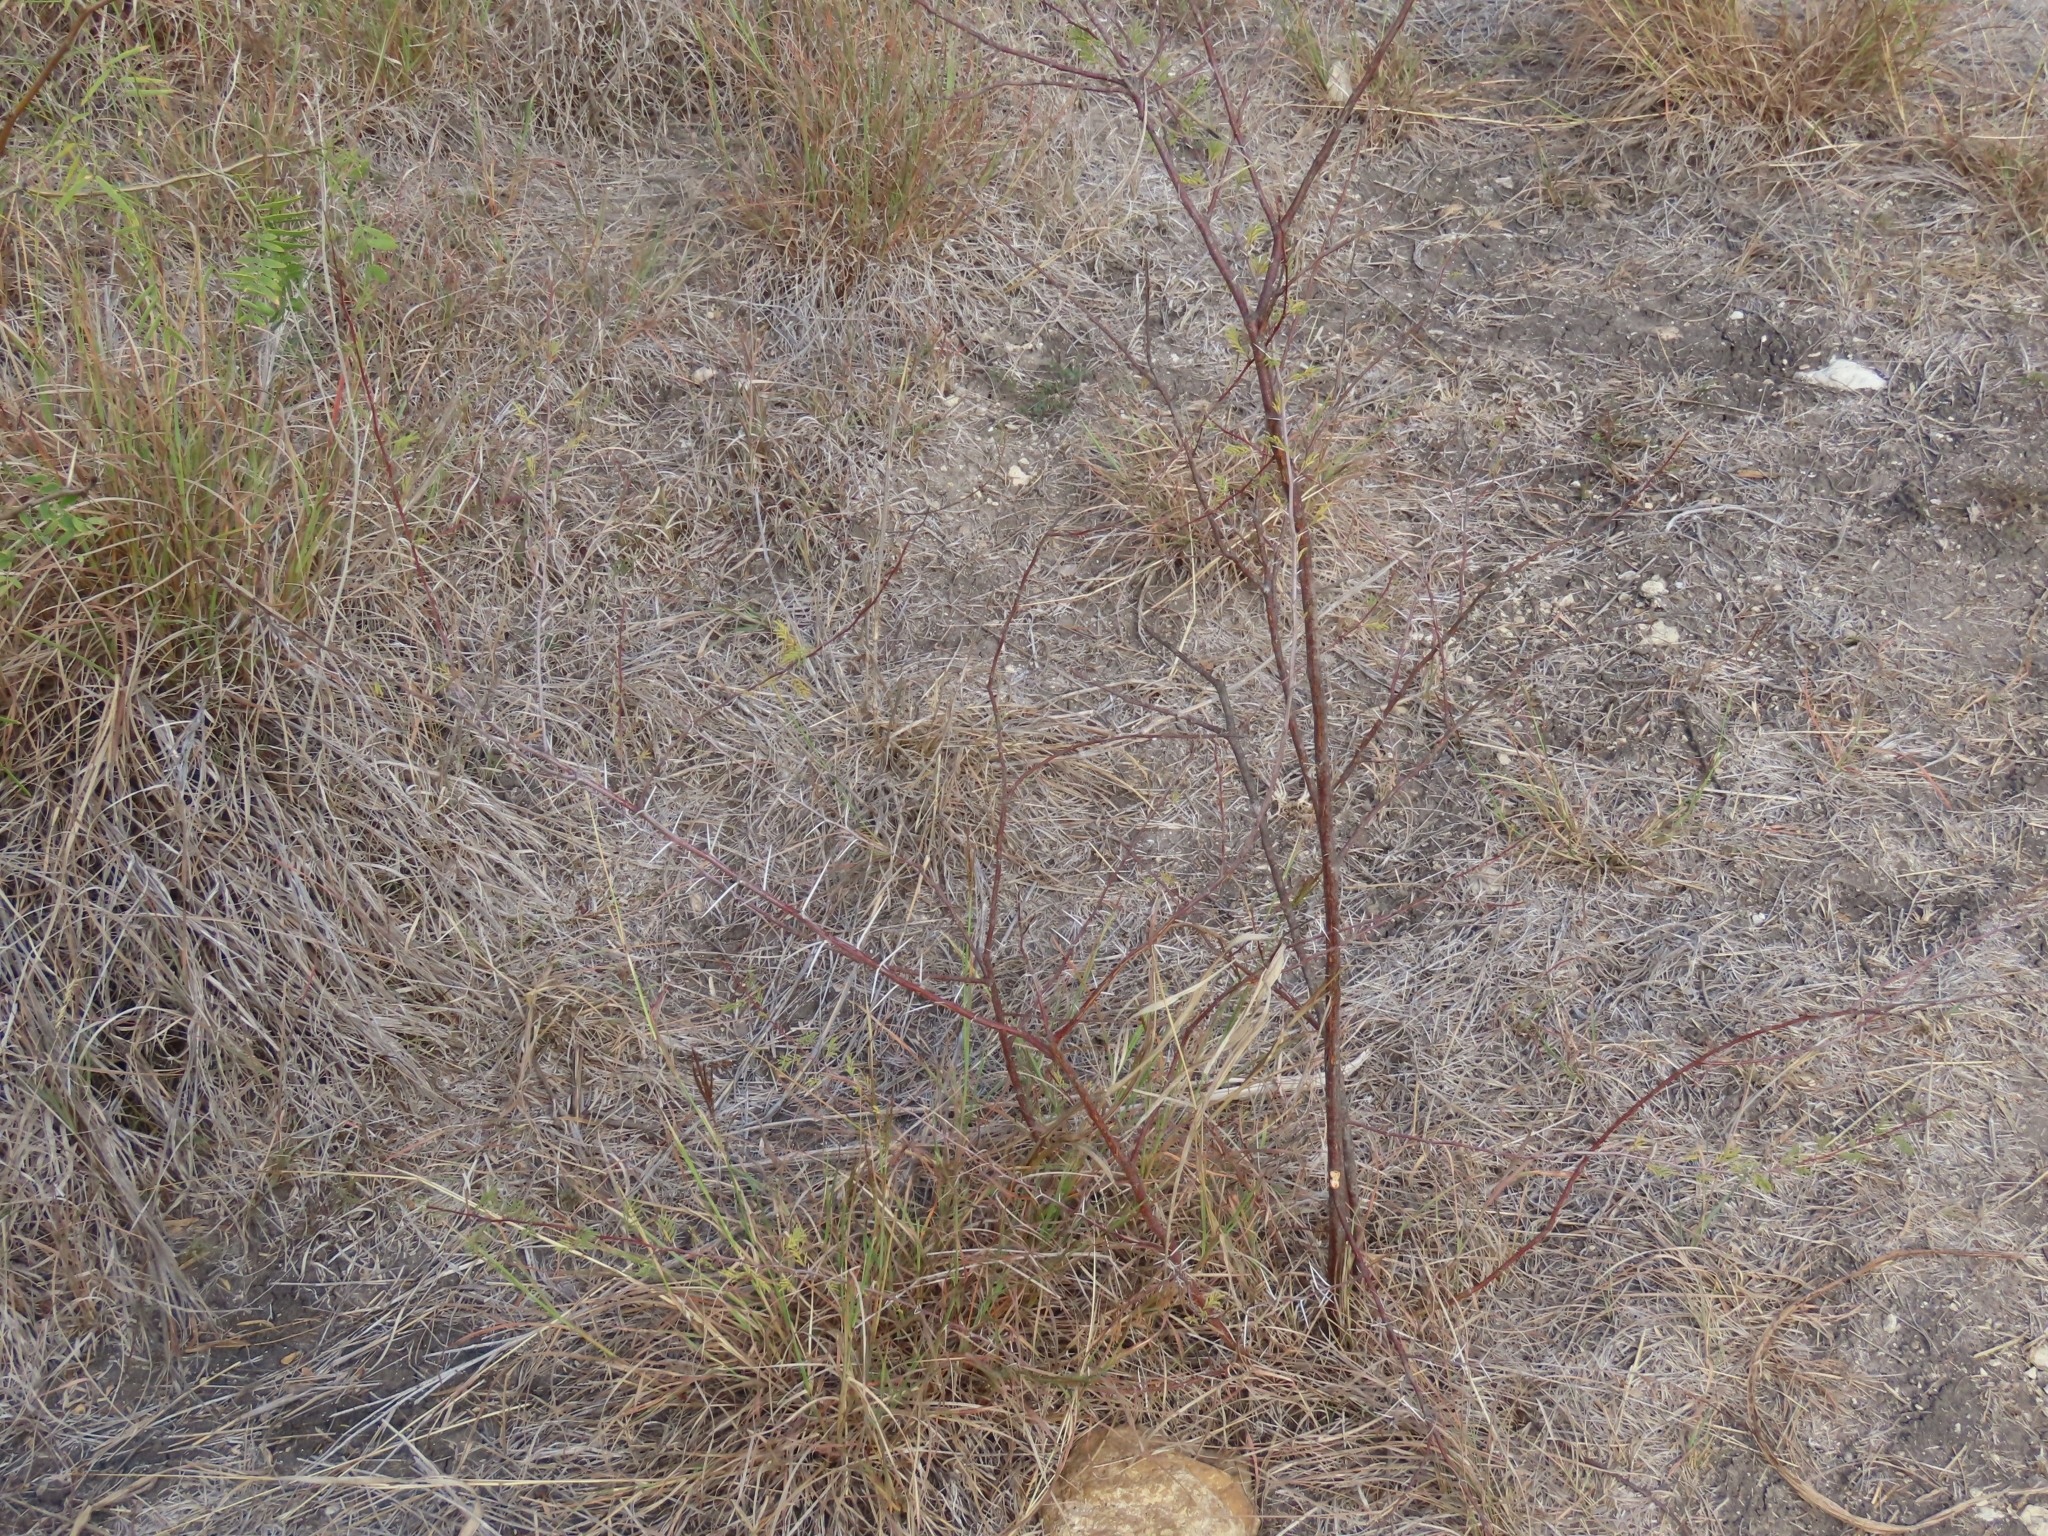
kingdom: Plantae
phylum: Tracheophyta
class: Magnoliopsida
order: Fabales
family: Fabaceae
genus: Vachellia
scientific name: Vachellia farnesiana
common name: Sweet acacia
